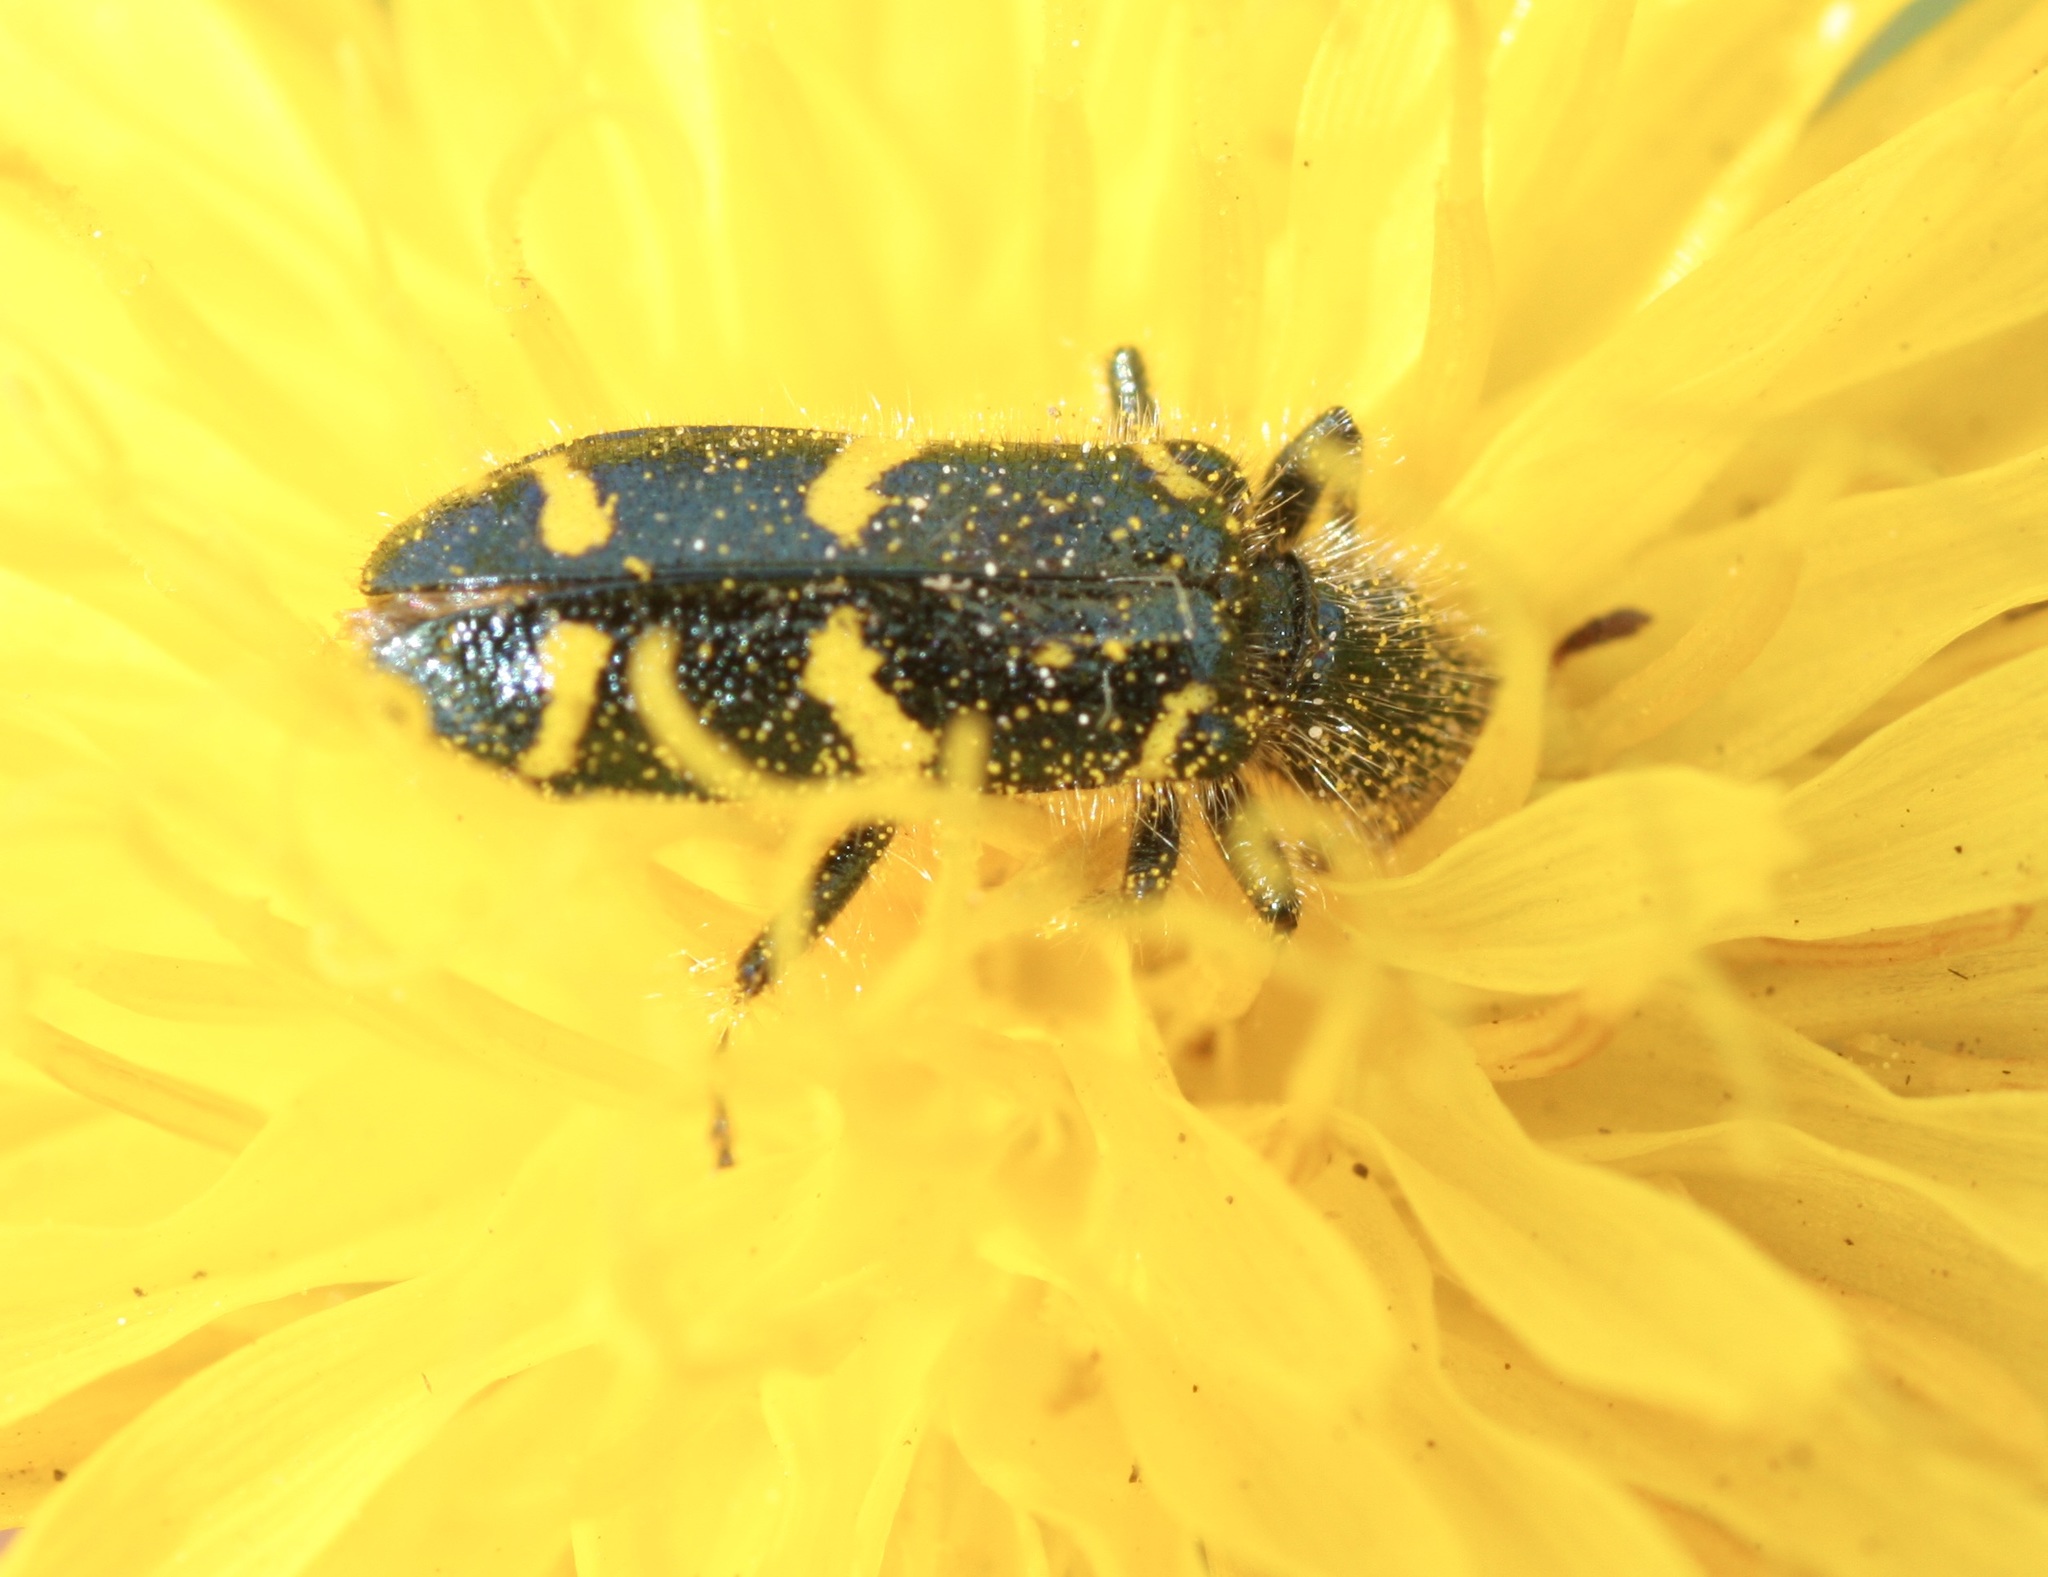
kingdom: Animalia
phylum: Arthropoda
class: Insecta
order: Coleoptera
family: Cleridae
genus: Trichodes
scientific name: Trichodes ornatus
